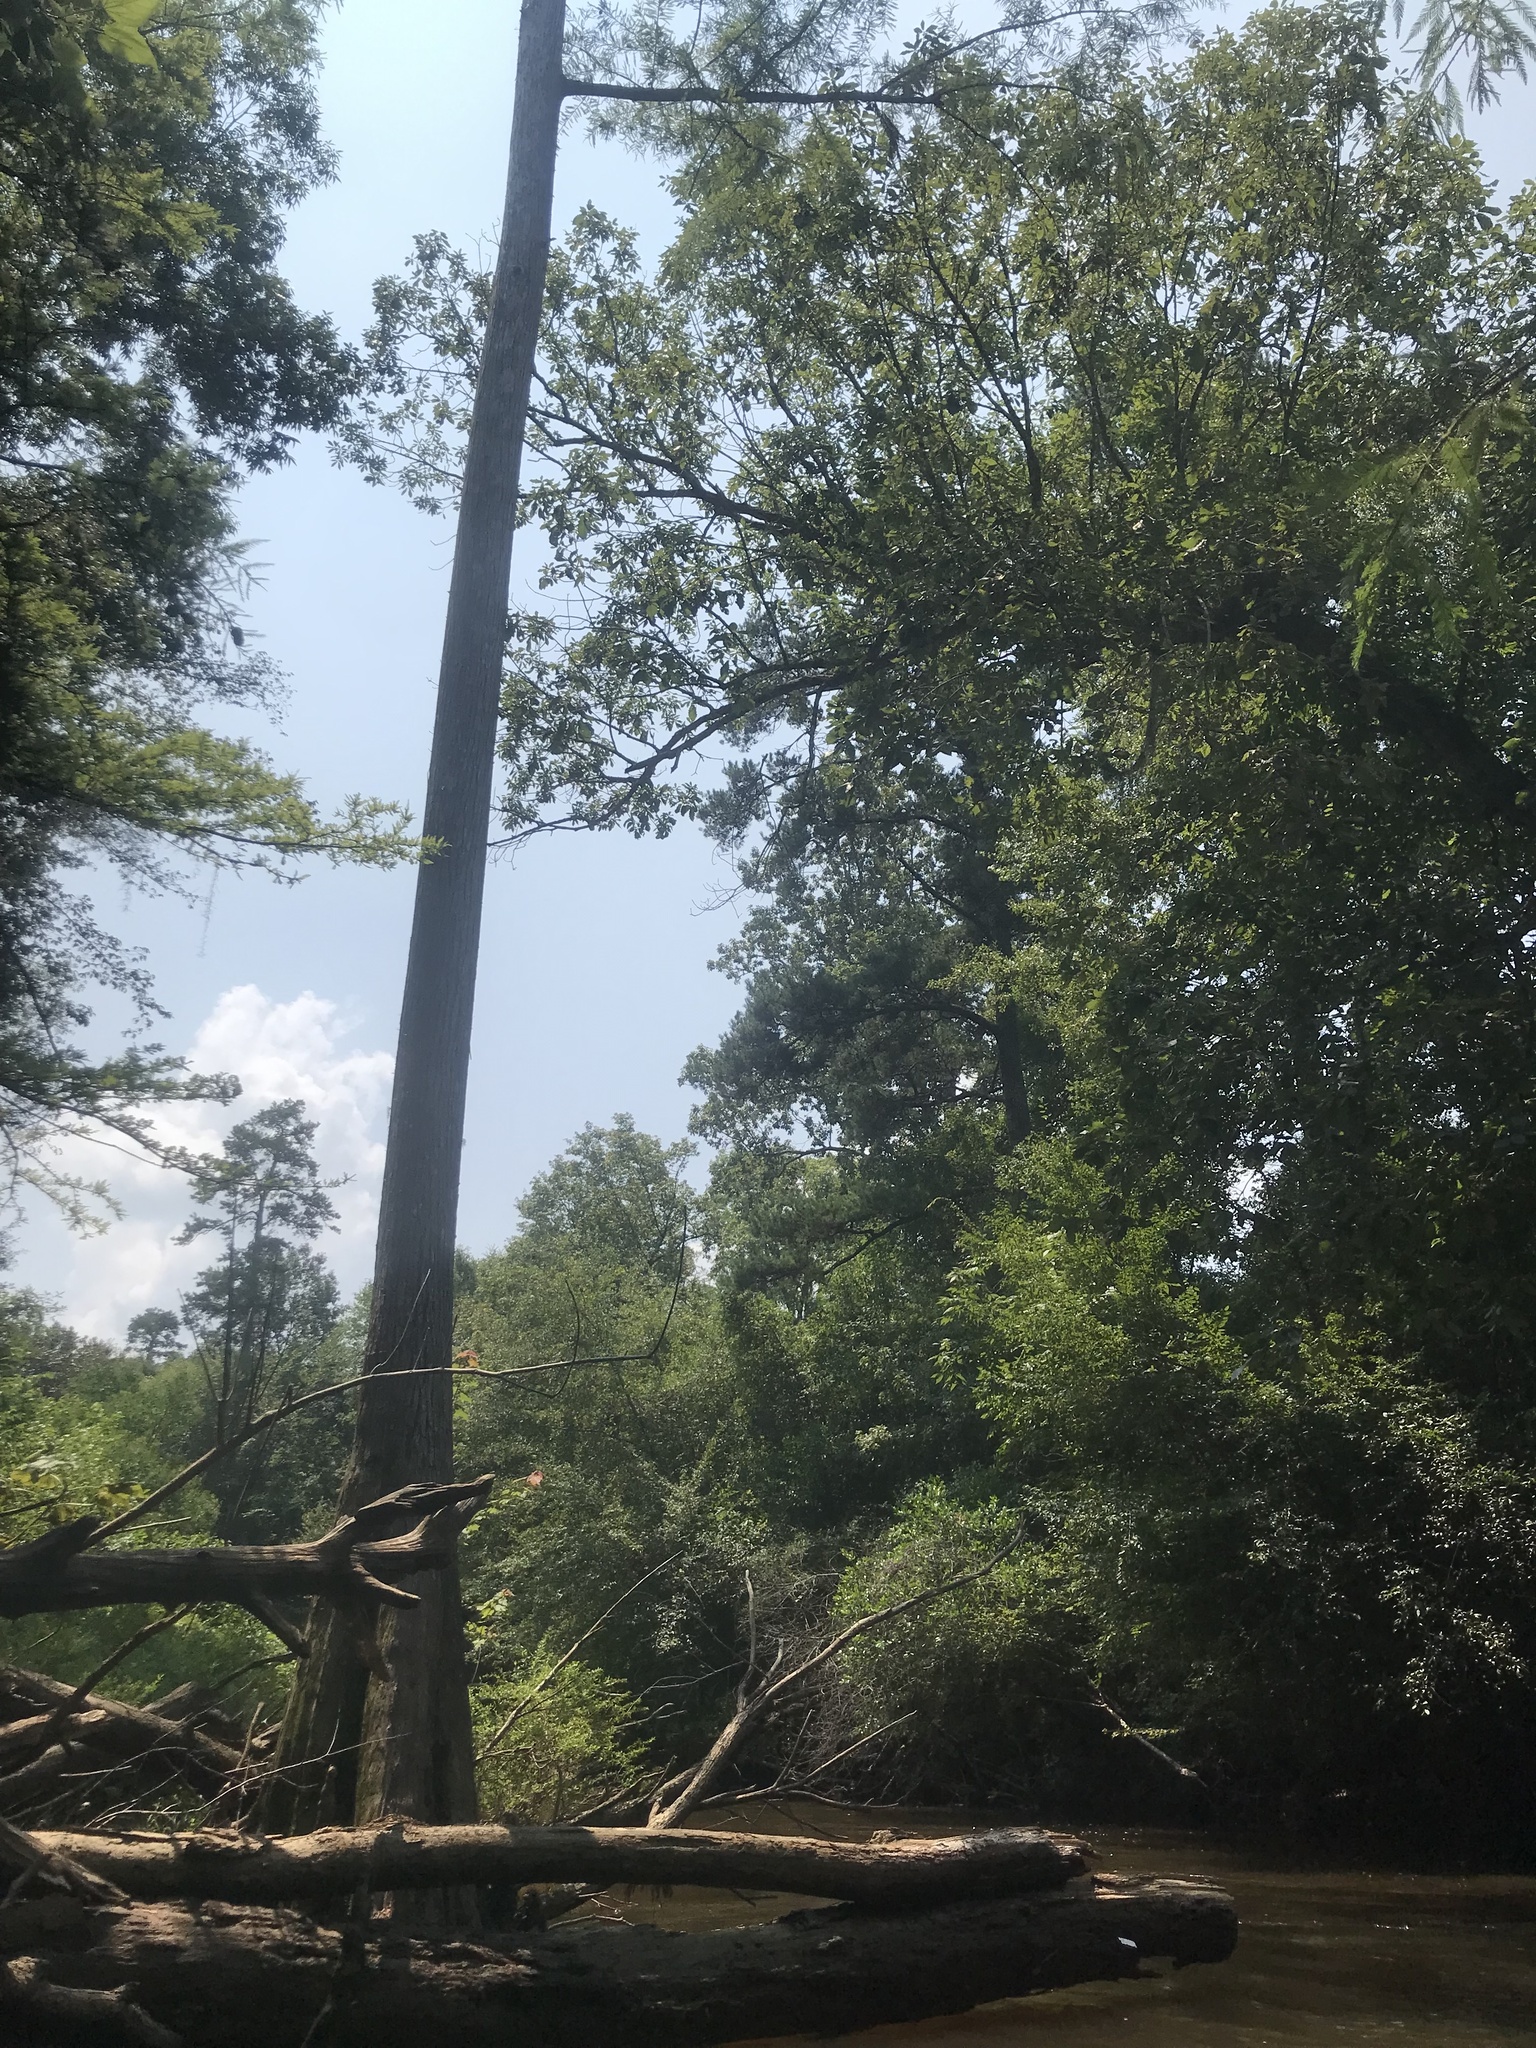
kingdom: Plantae
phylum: Tracheophyta
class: Pinopsida
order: Pinales
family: Cupressaceae
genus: Taxodium
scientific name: Taxodium distichum
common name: Bald cypress
